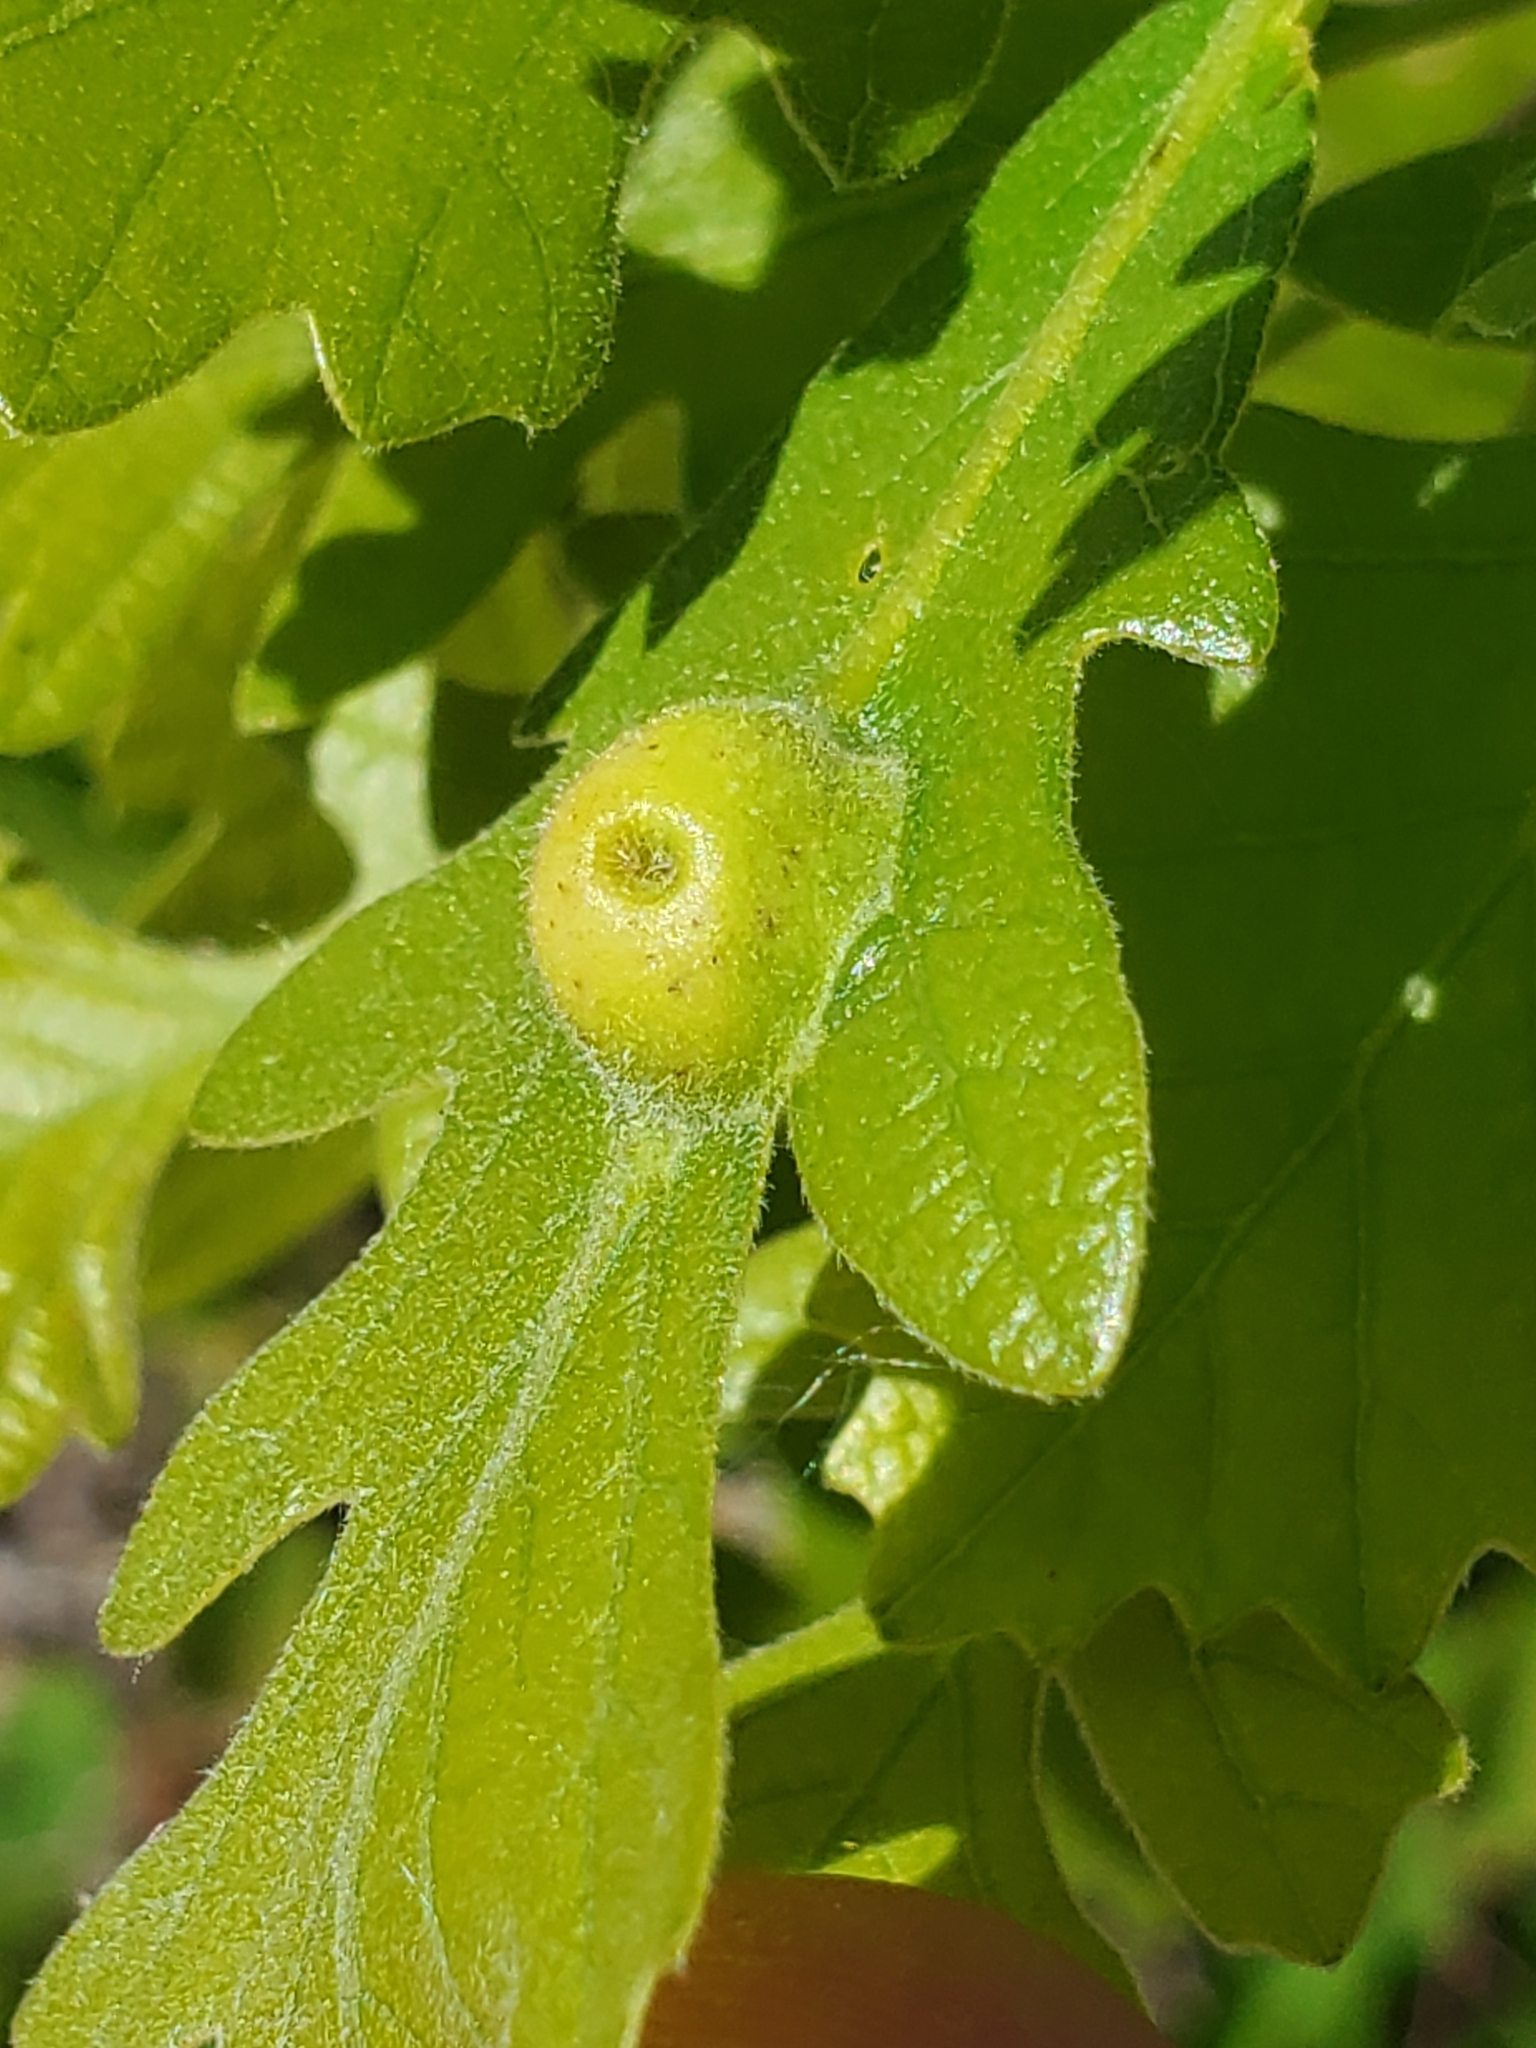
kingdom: Animalia
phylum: Arthropoda
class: Insecta
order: Hymenoptera
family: Cynipidae
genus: Andricus
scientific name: Andricus
